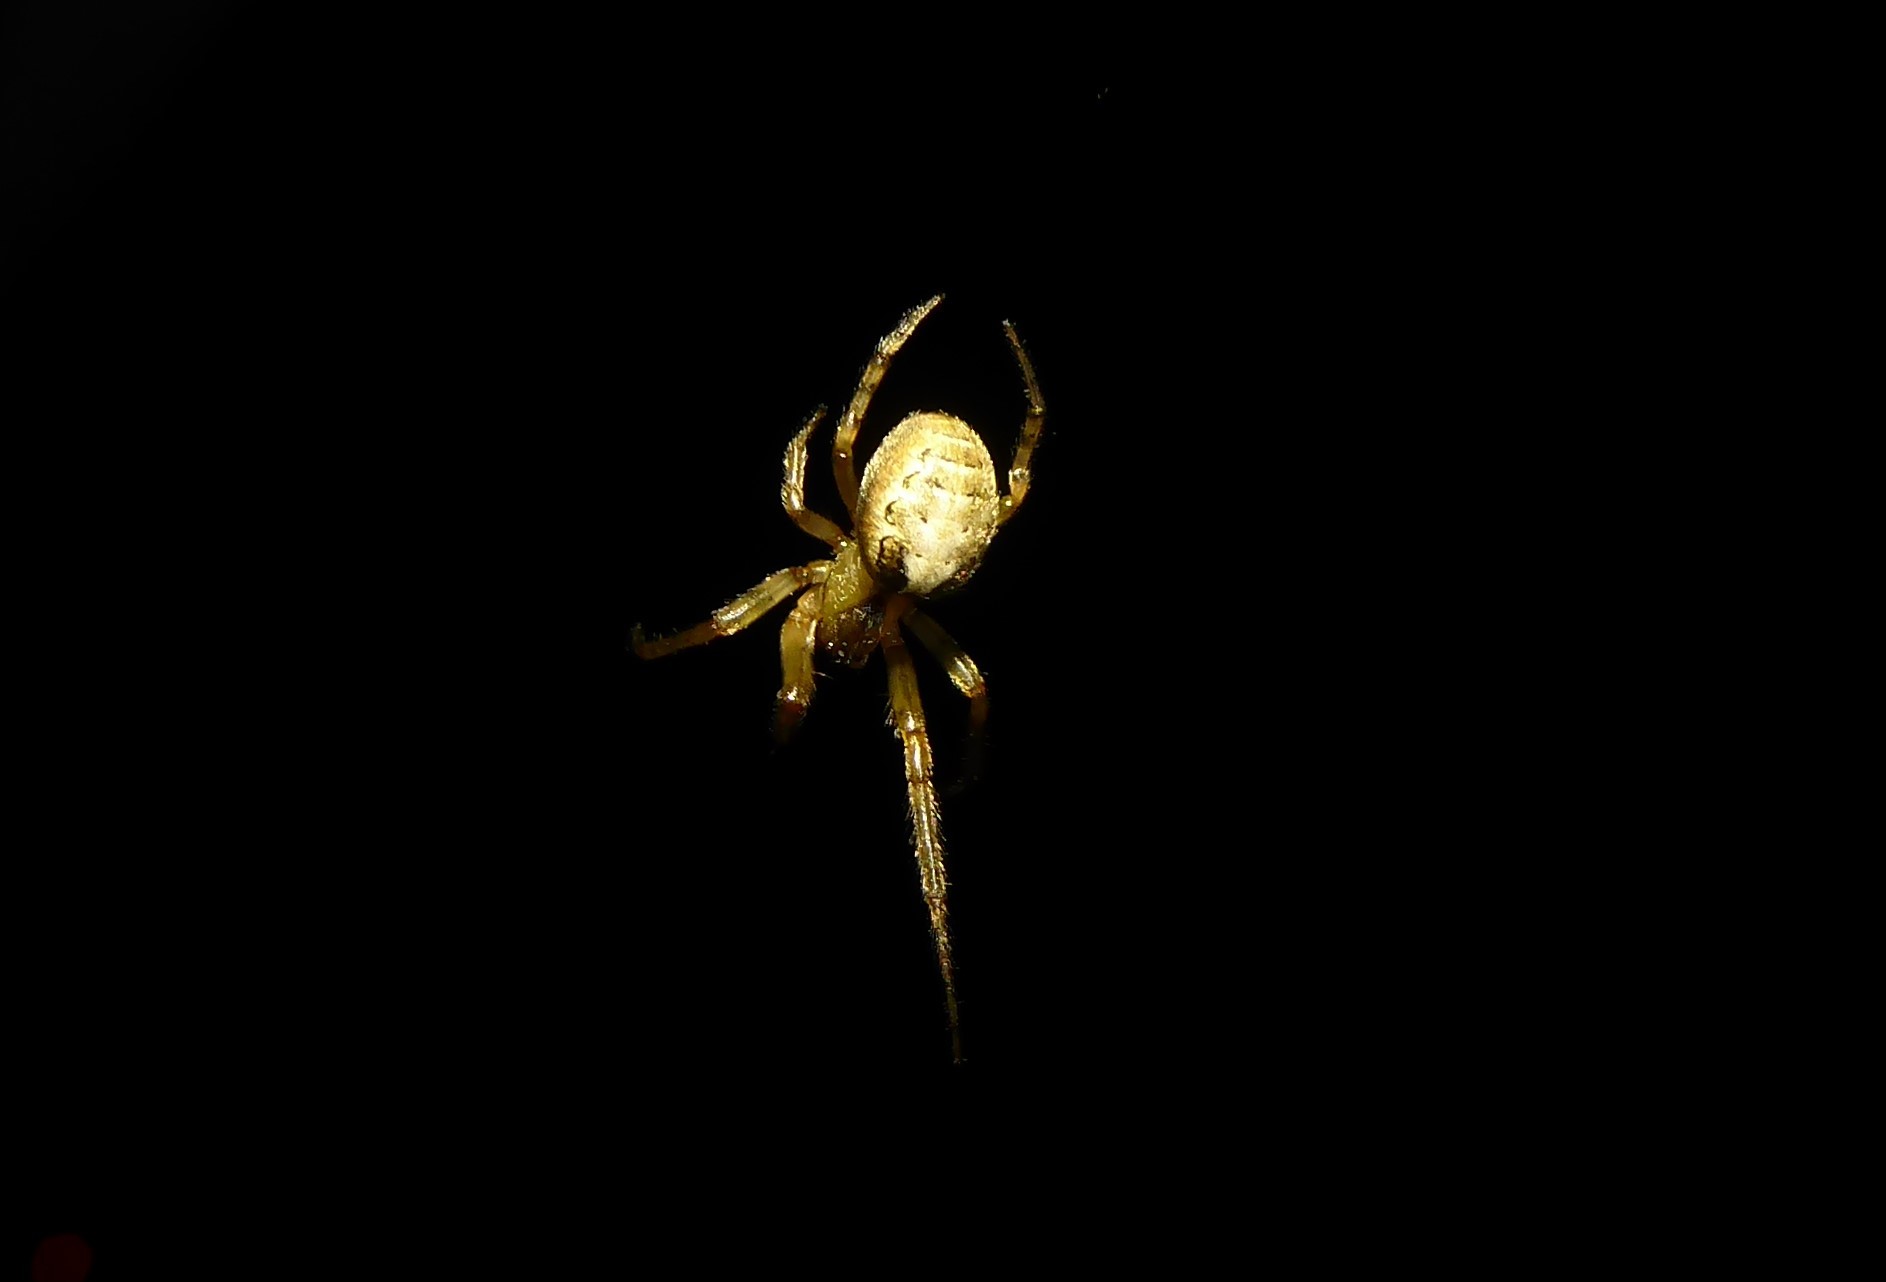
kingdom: Animalia
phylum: Arthropoda
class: Arachnida
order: Araneae
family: Araneidae
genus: Zygiella
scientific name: Zygiella x-notata
